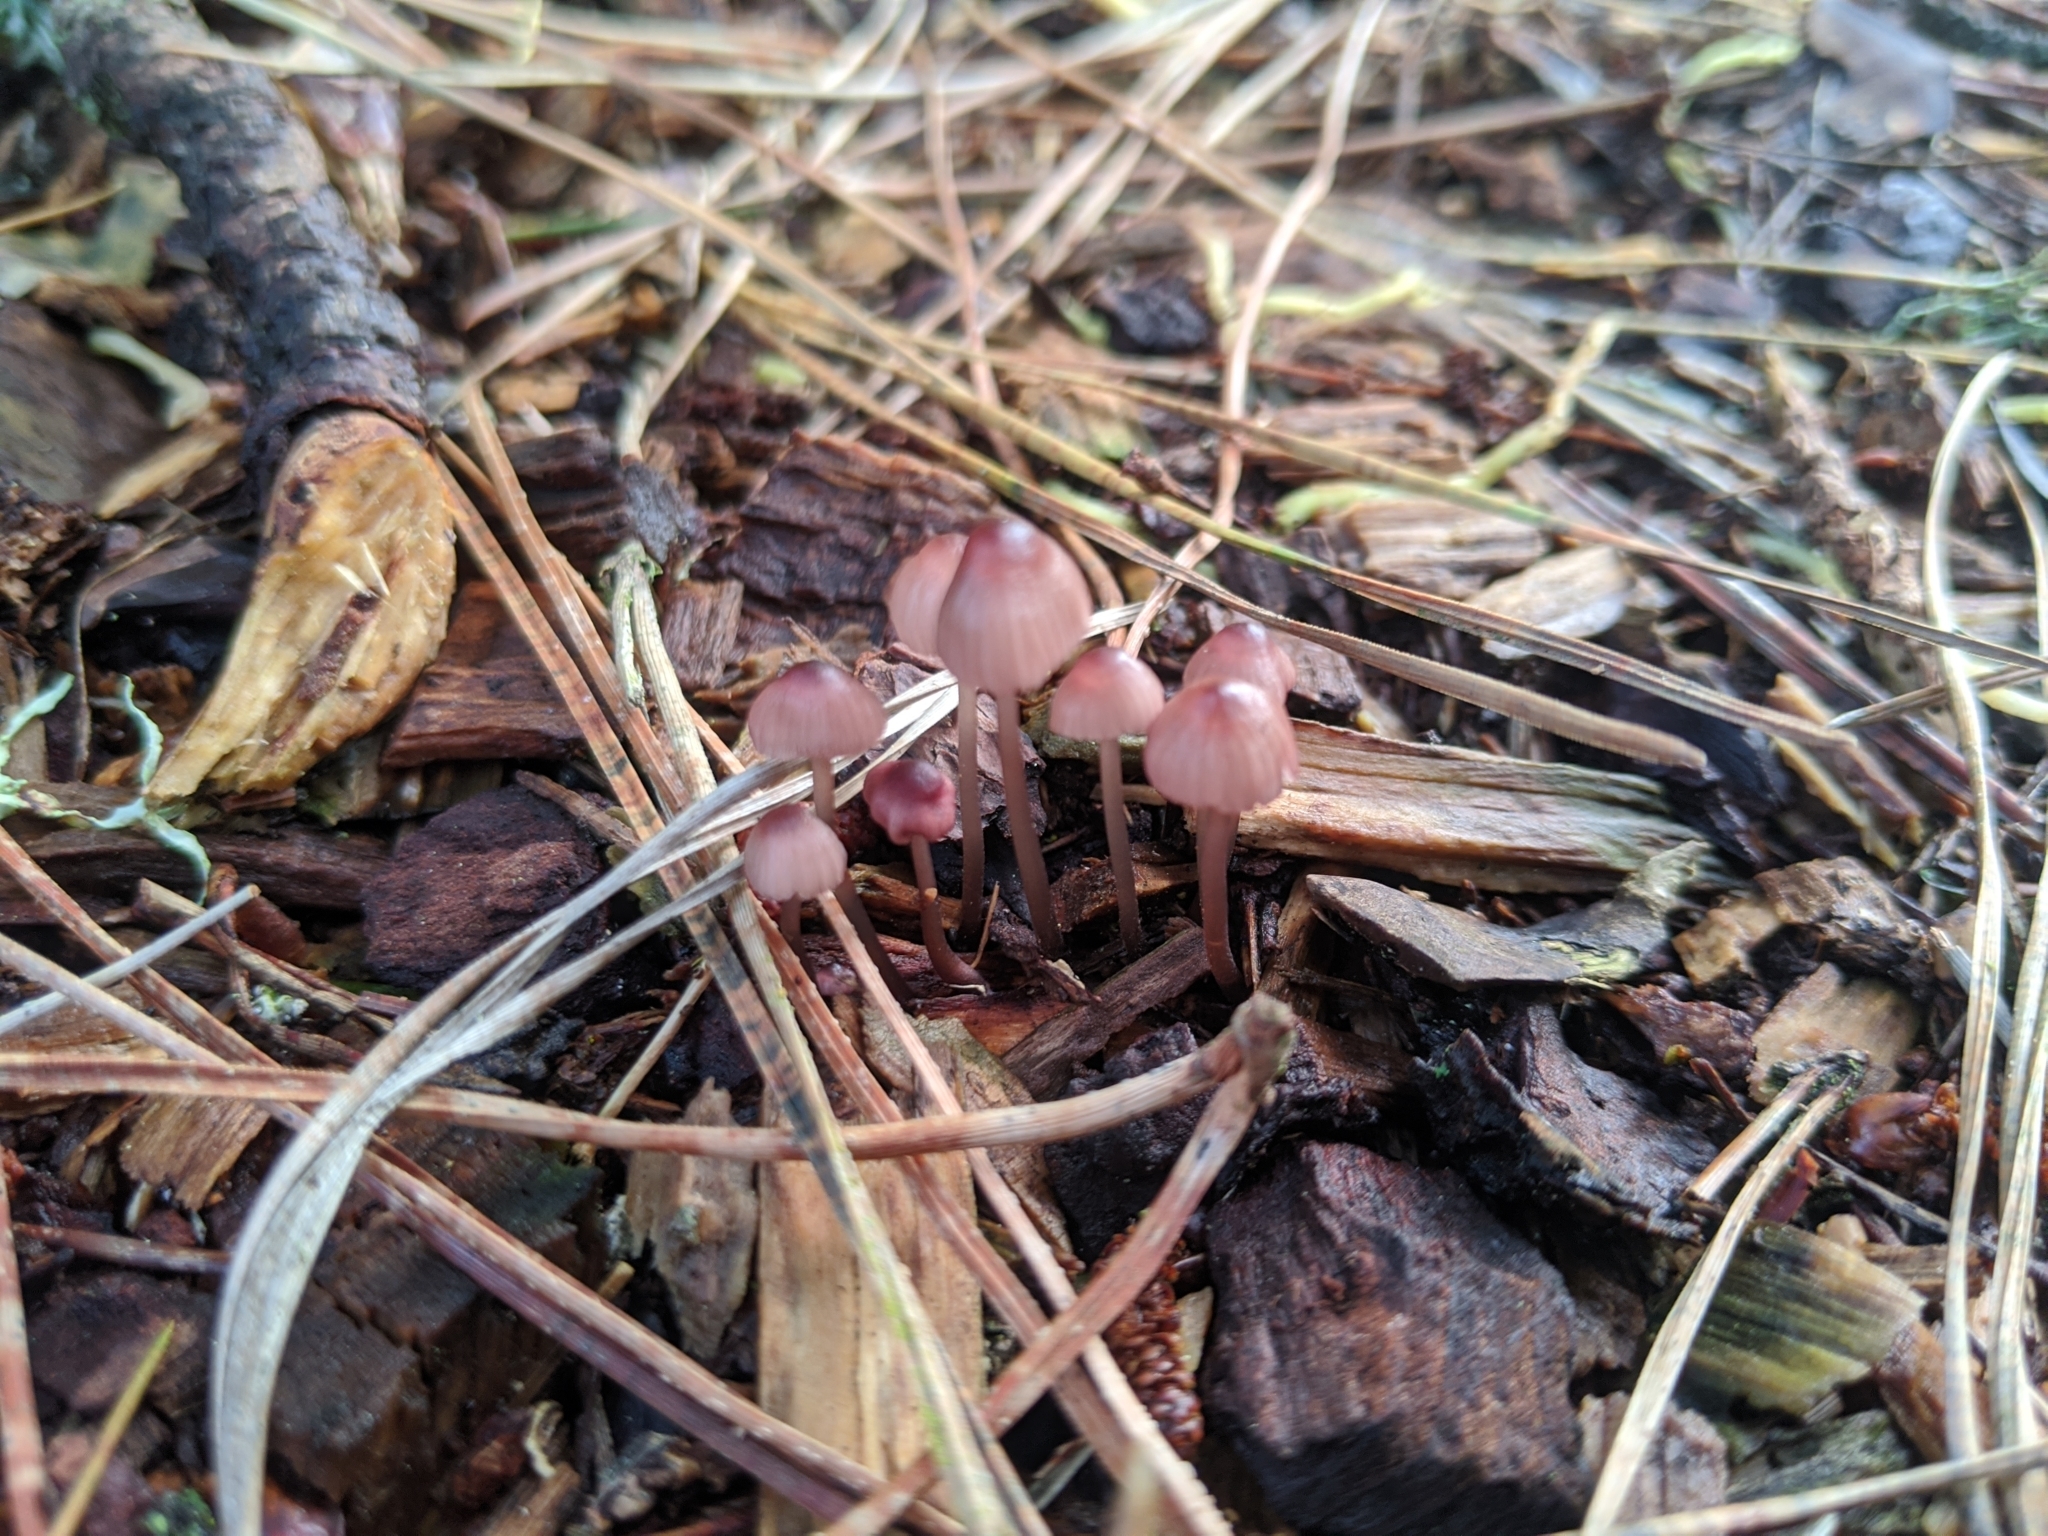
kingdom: Fungi
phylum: Basidiomycota
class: Agaricomycetes
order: Agaricales
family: Mycenaceae
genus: Mycena
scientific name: Mycena purpureofusca
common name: Purple edge bonnet
